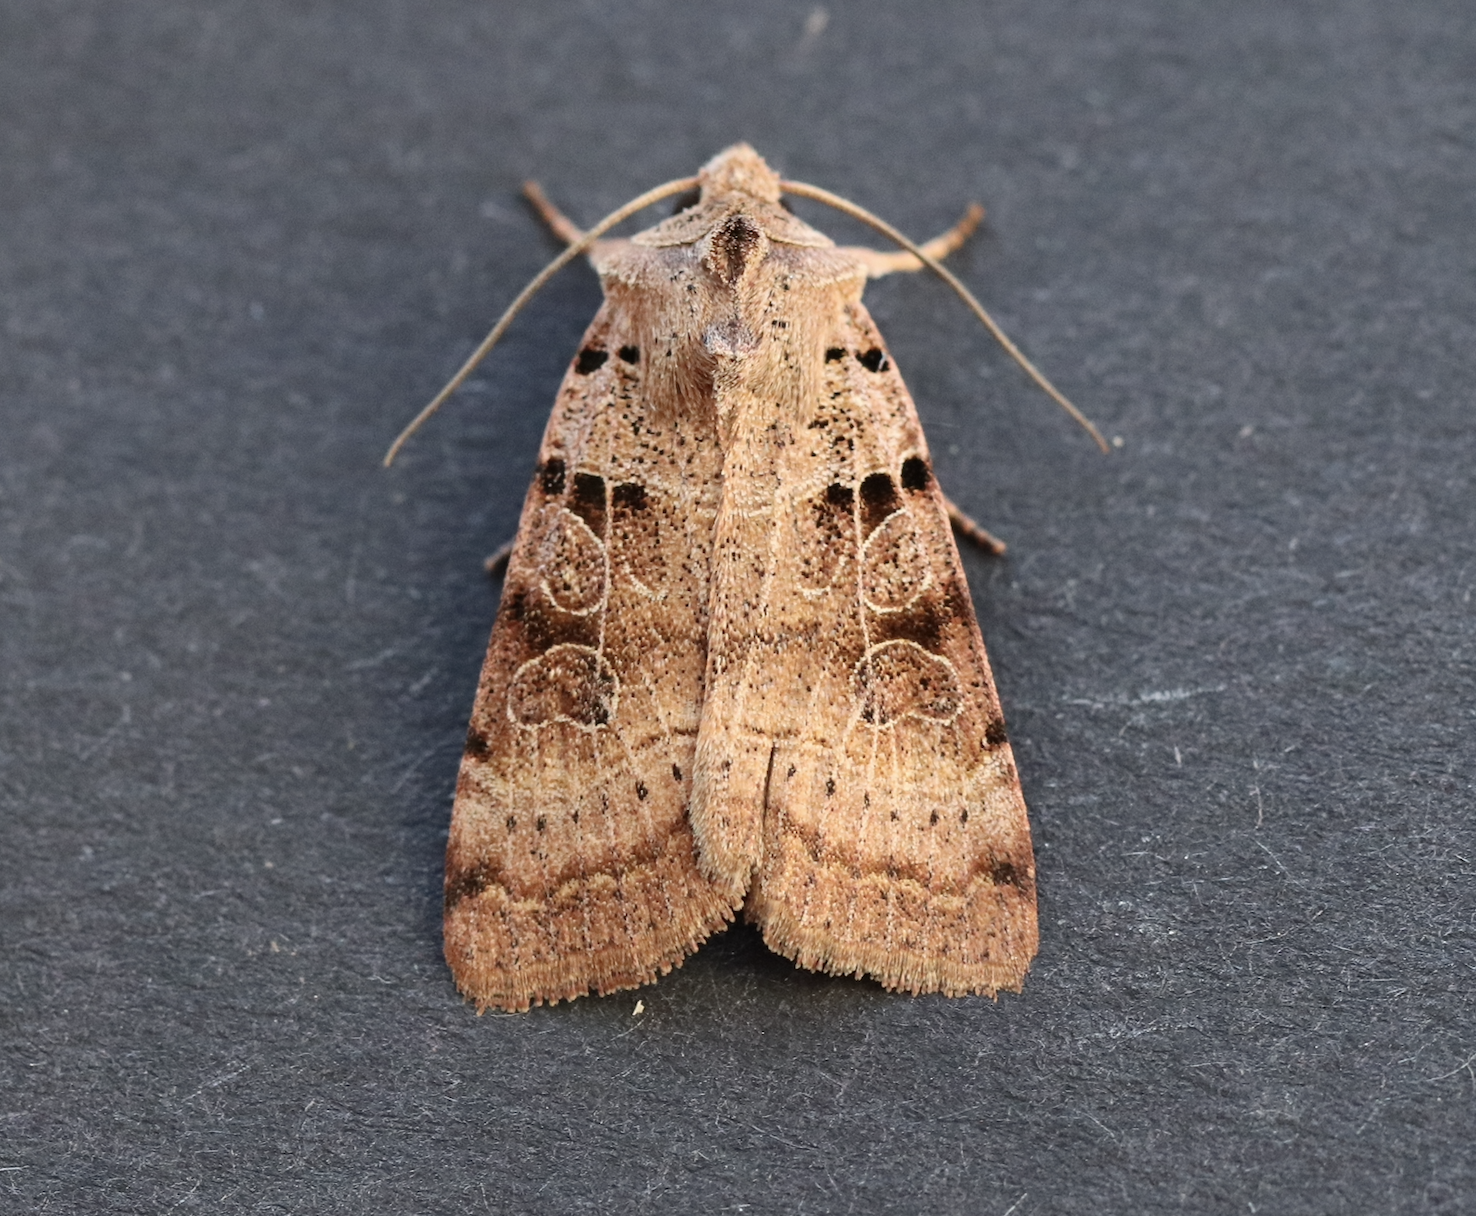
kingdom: Animalia
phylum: Arthropoda
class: Insecta
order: Lepidoptera
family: Noctuidae
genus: Eugnorisma
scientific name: Eugnorisma depuncta
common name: Plain clay
